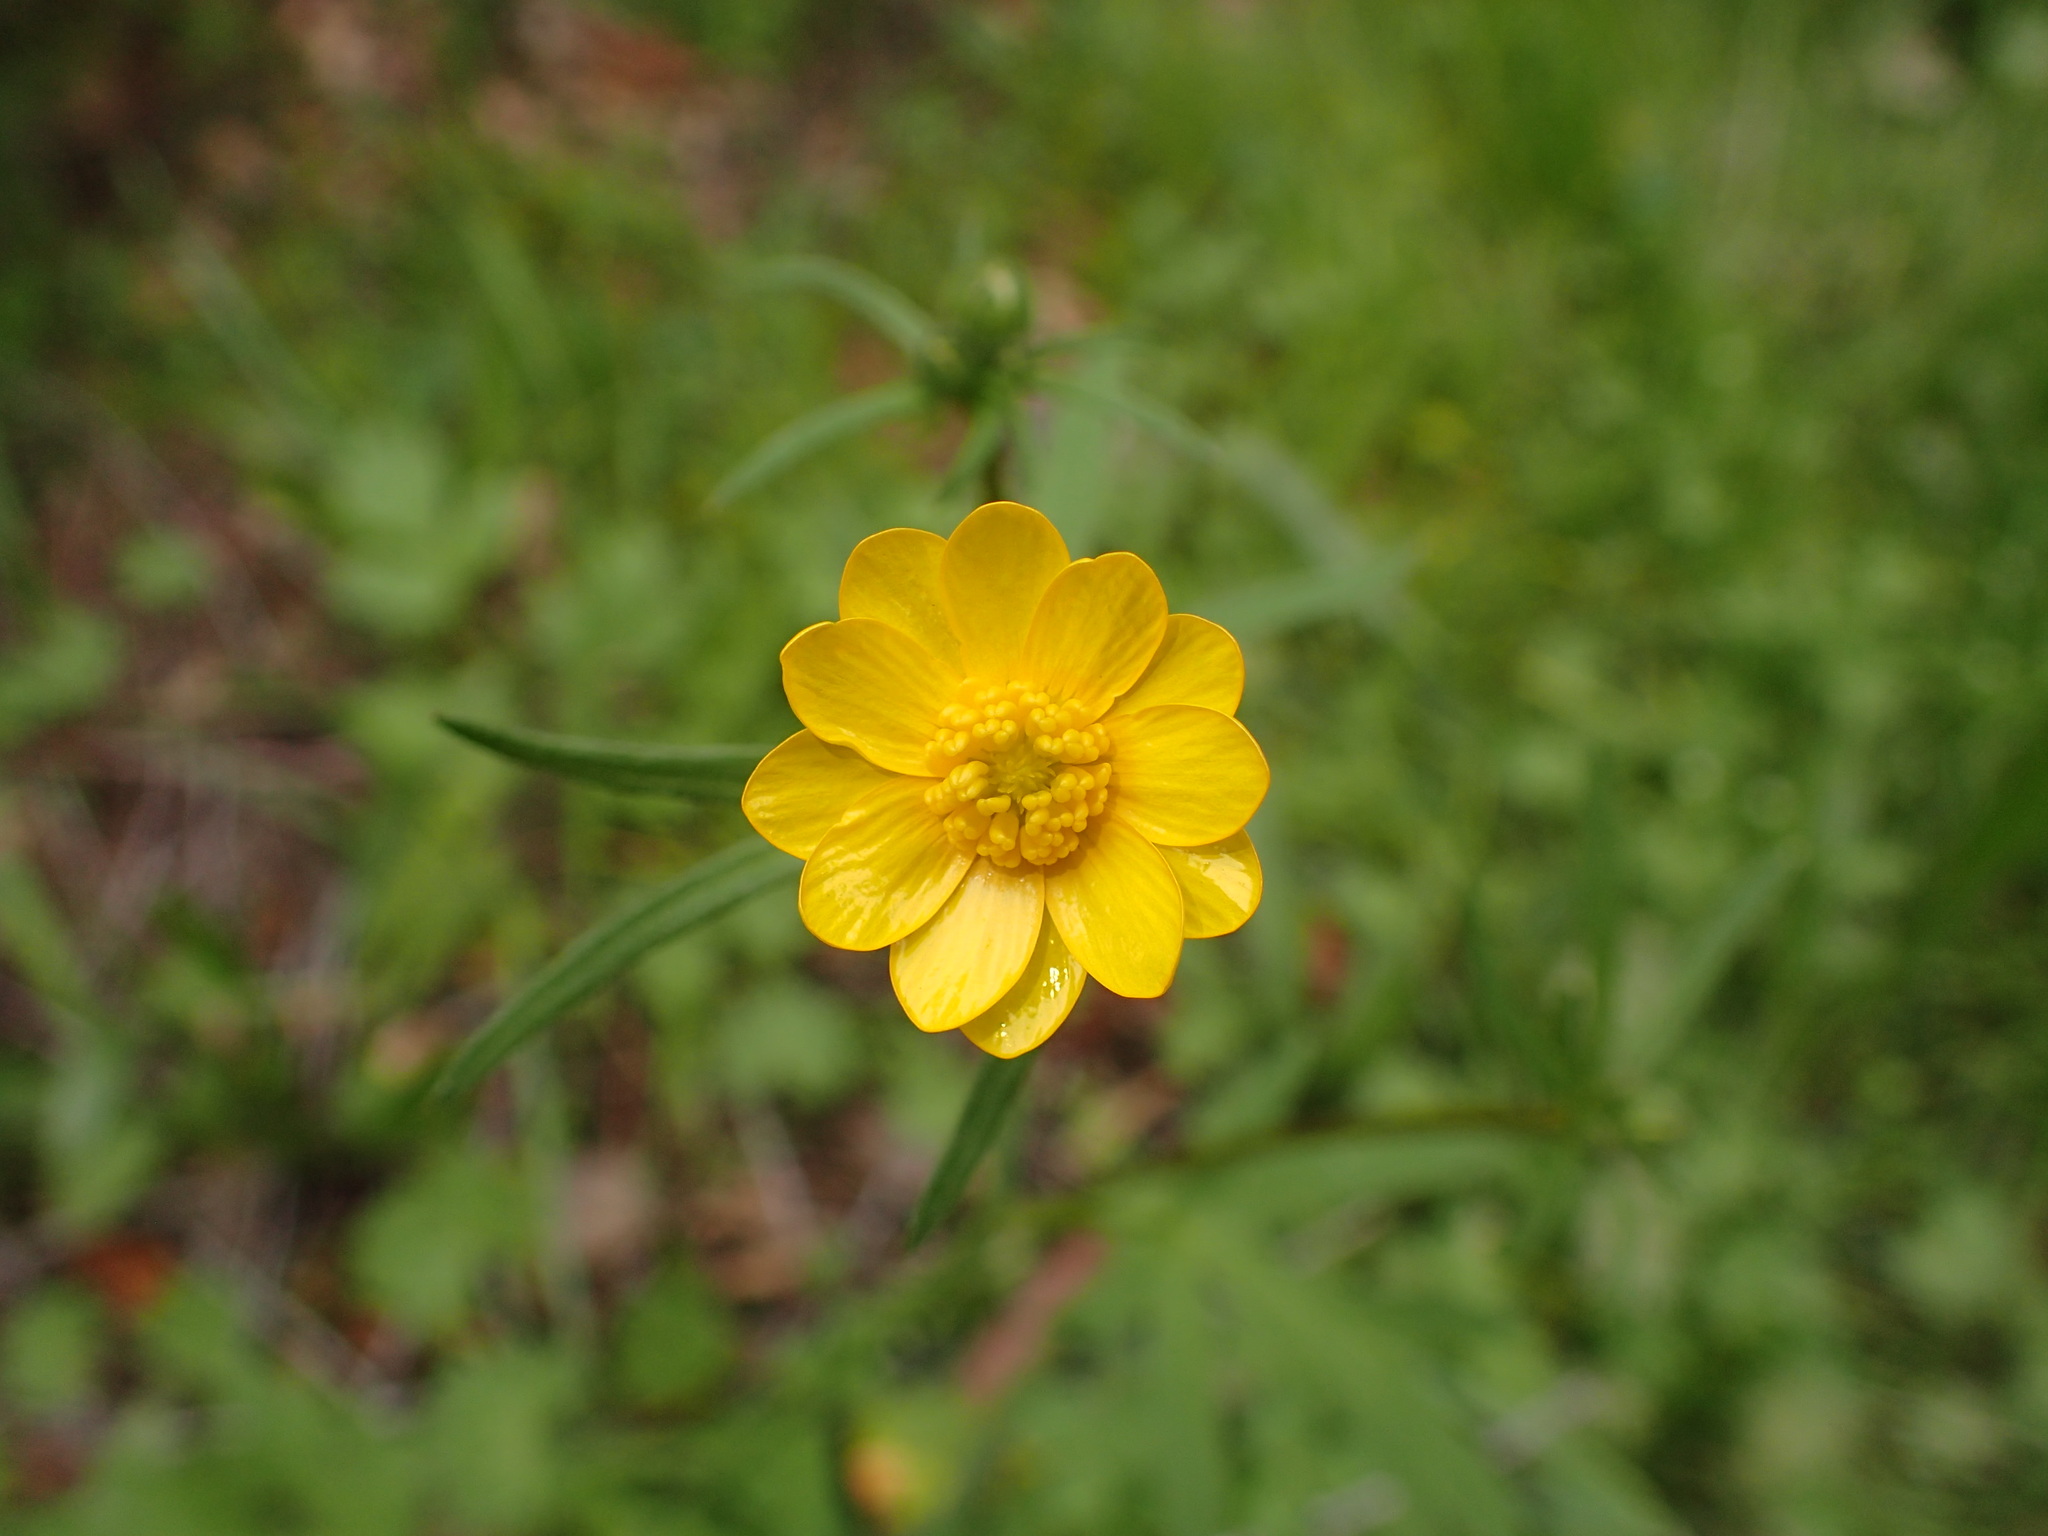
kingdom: Plantae
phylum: Tracheophyta
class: Magnoliopsida
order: Ranunculales
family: Ranunculaceae
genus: Ranunculus
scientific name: Ranunculus californicus
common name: California buttercup
